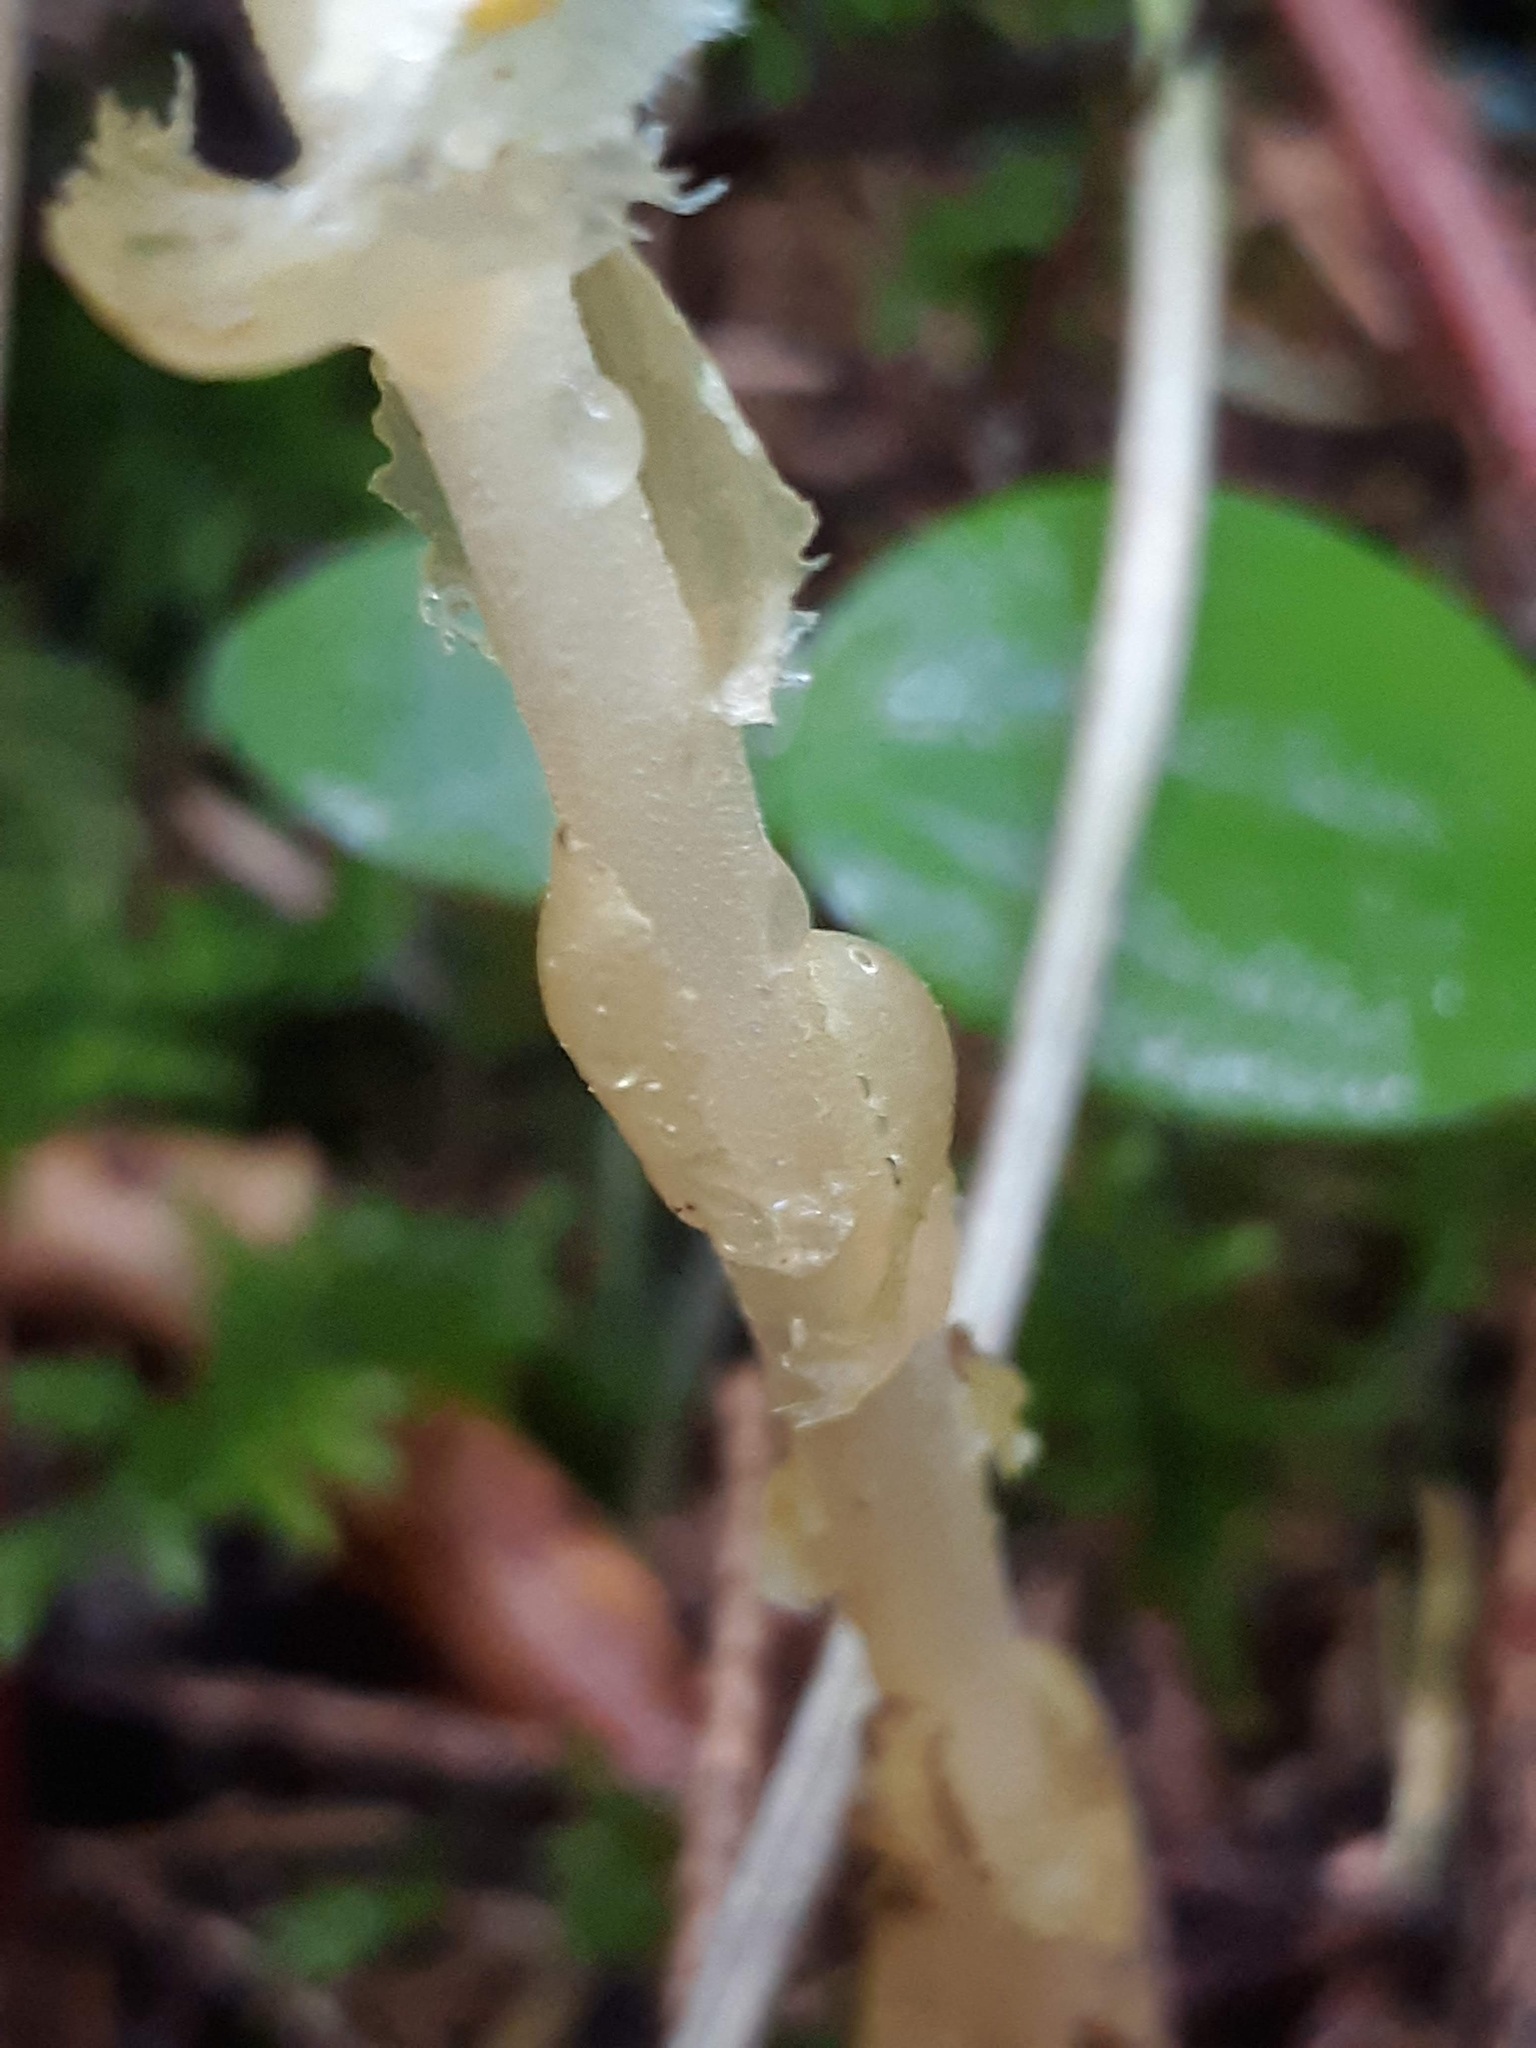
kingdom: Plantae
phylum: Tracheophyta
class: Magnoliopsida
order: Ericales
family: Ericaceae
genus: Hypopitys
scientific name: Hypopitys monotropa
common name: Yellow bird's-nest
